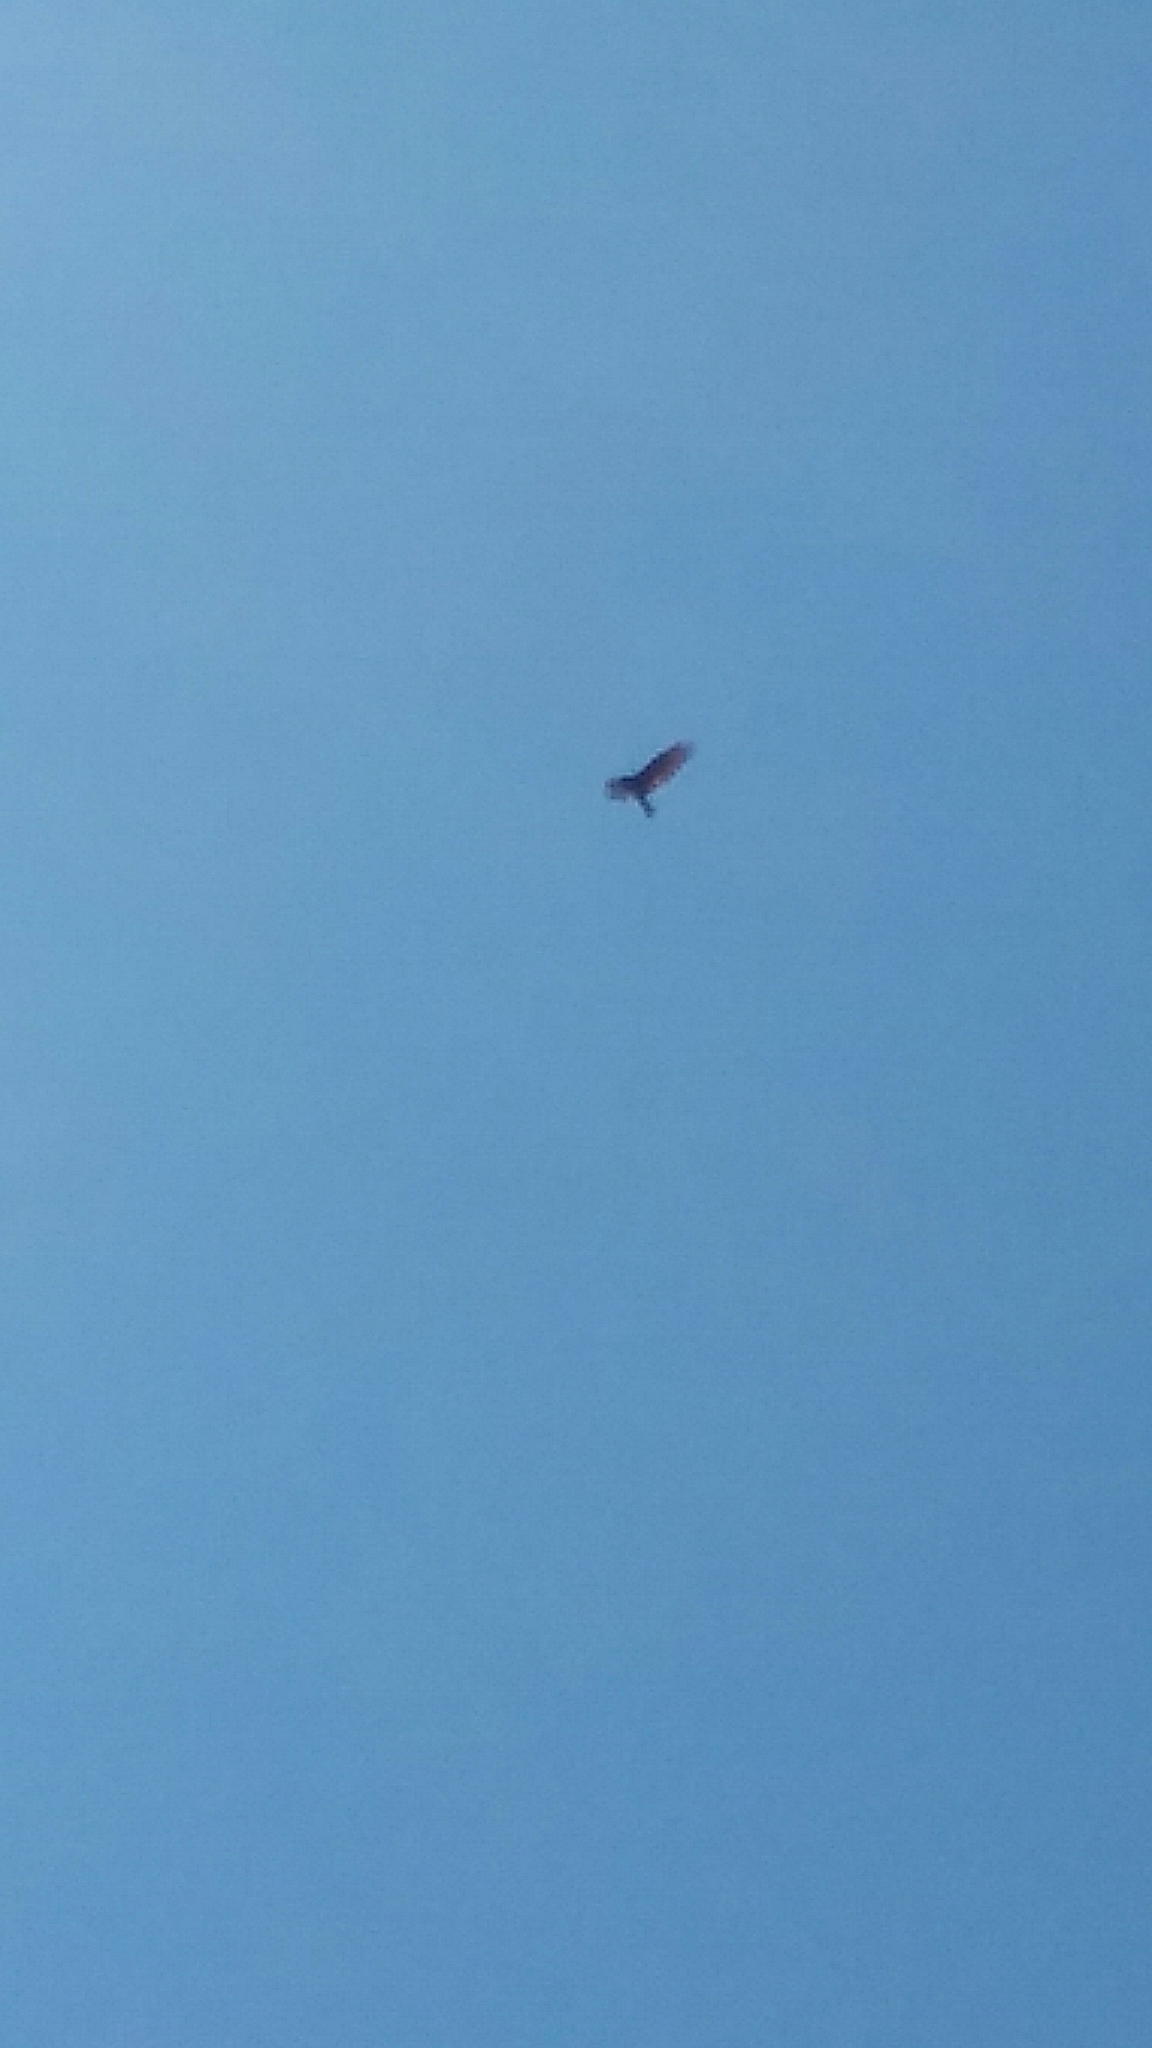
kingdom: Animalia
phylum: Chordata
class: Aves
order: Accipitriformes
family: Cathartidae
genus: Cathartes
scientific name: Cathartes aura
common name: Turkey vulture
